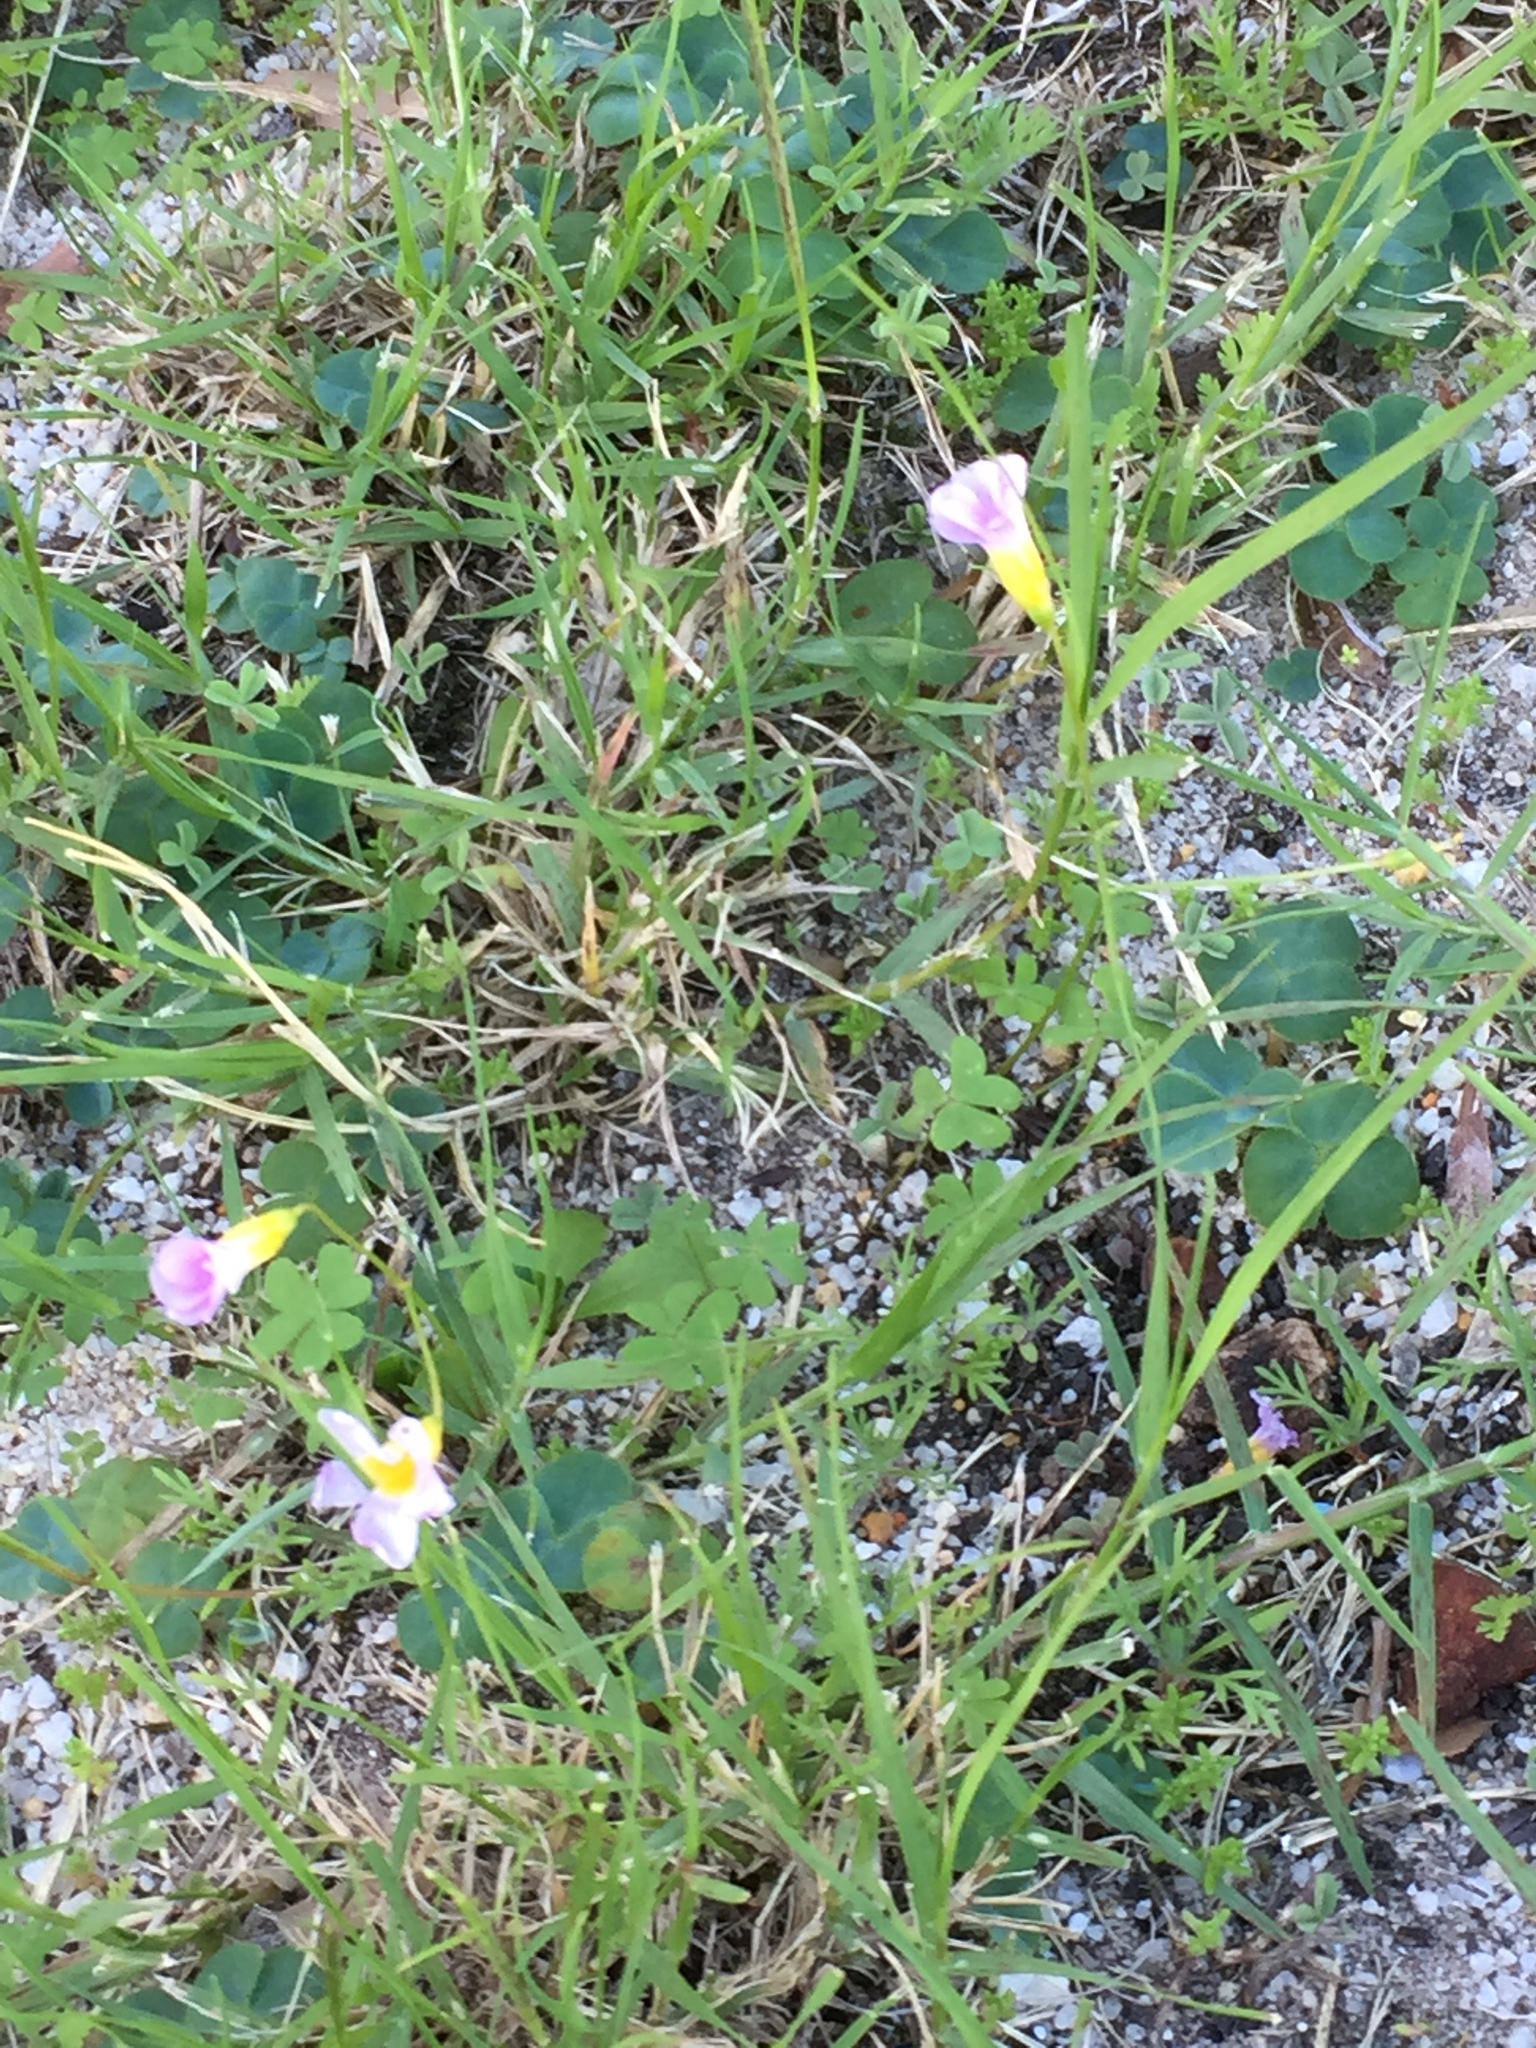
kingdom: Plantae
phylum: Tracheophyta
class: Magnoliopsida
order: Oxalidales
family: Oxalidaceae
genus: Oxalis
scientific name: Oxalis caprina
